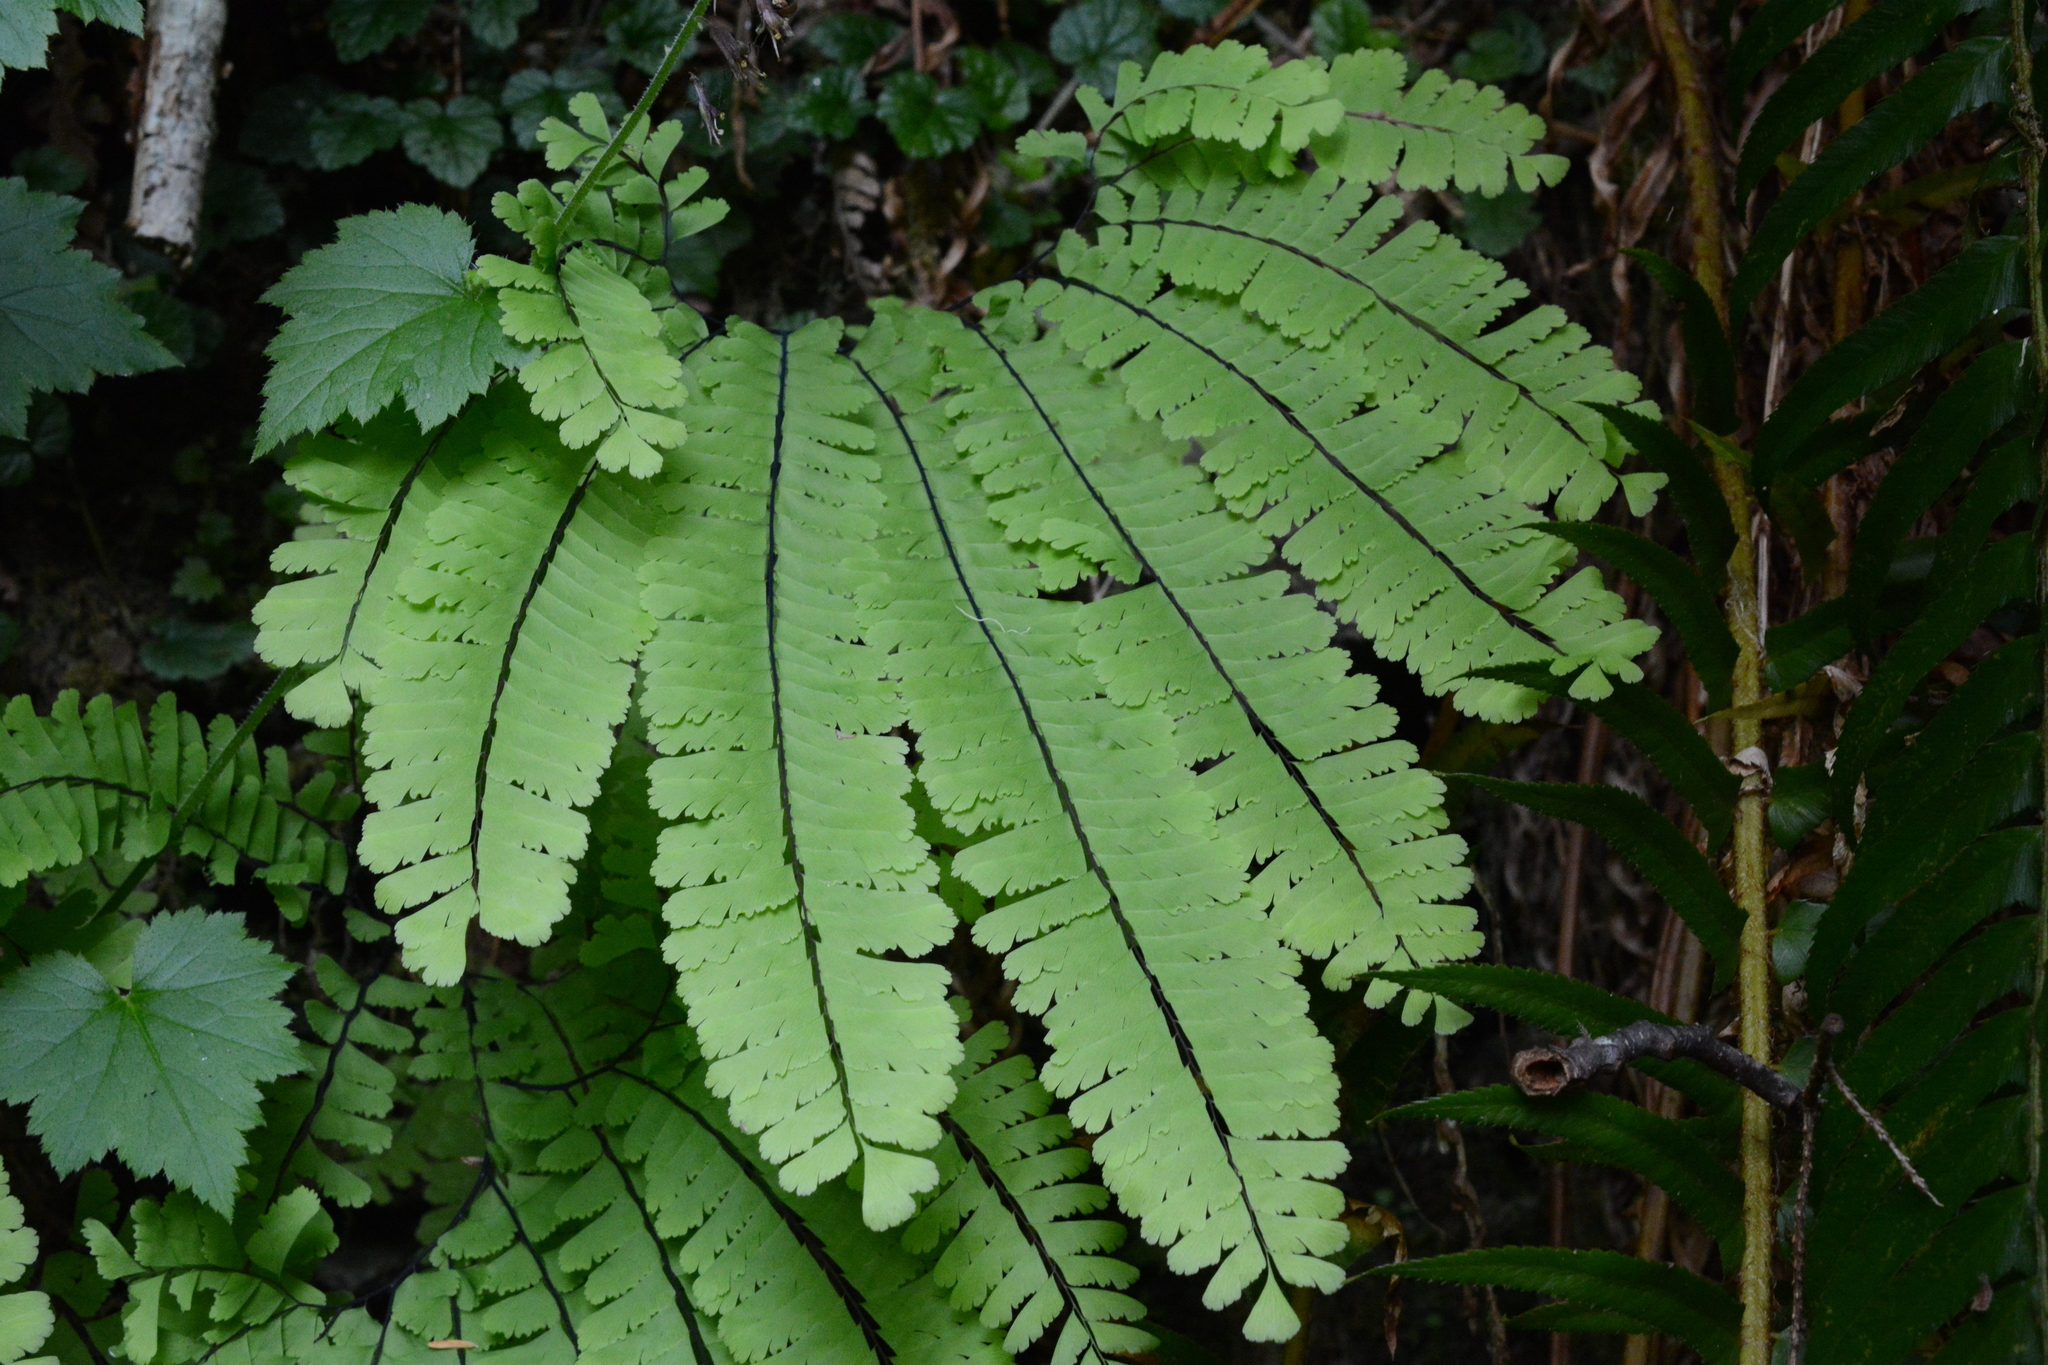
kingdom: Plantae
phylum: Tracheophyta
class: Polypodiopsida
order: Polypodiales
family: Pteridaceae
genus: Adiantum
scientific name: Adiantum aleuticum
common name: Aleutian maidenhair fern
